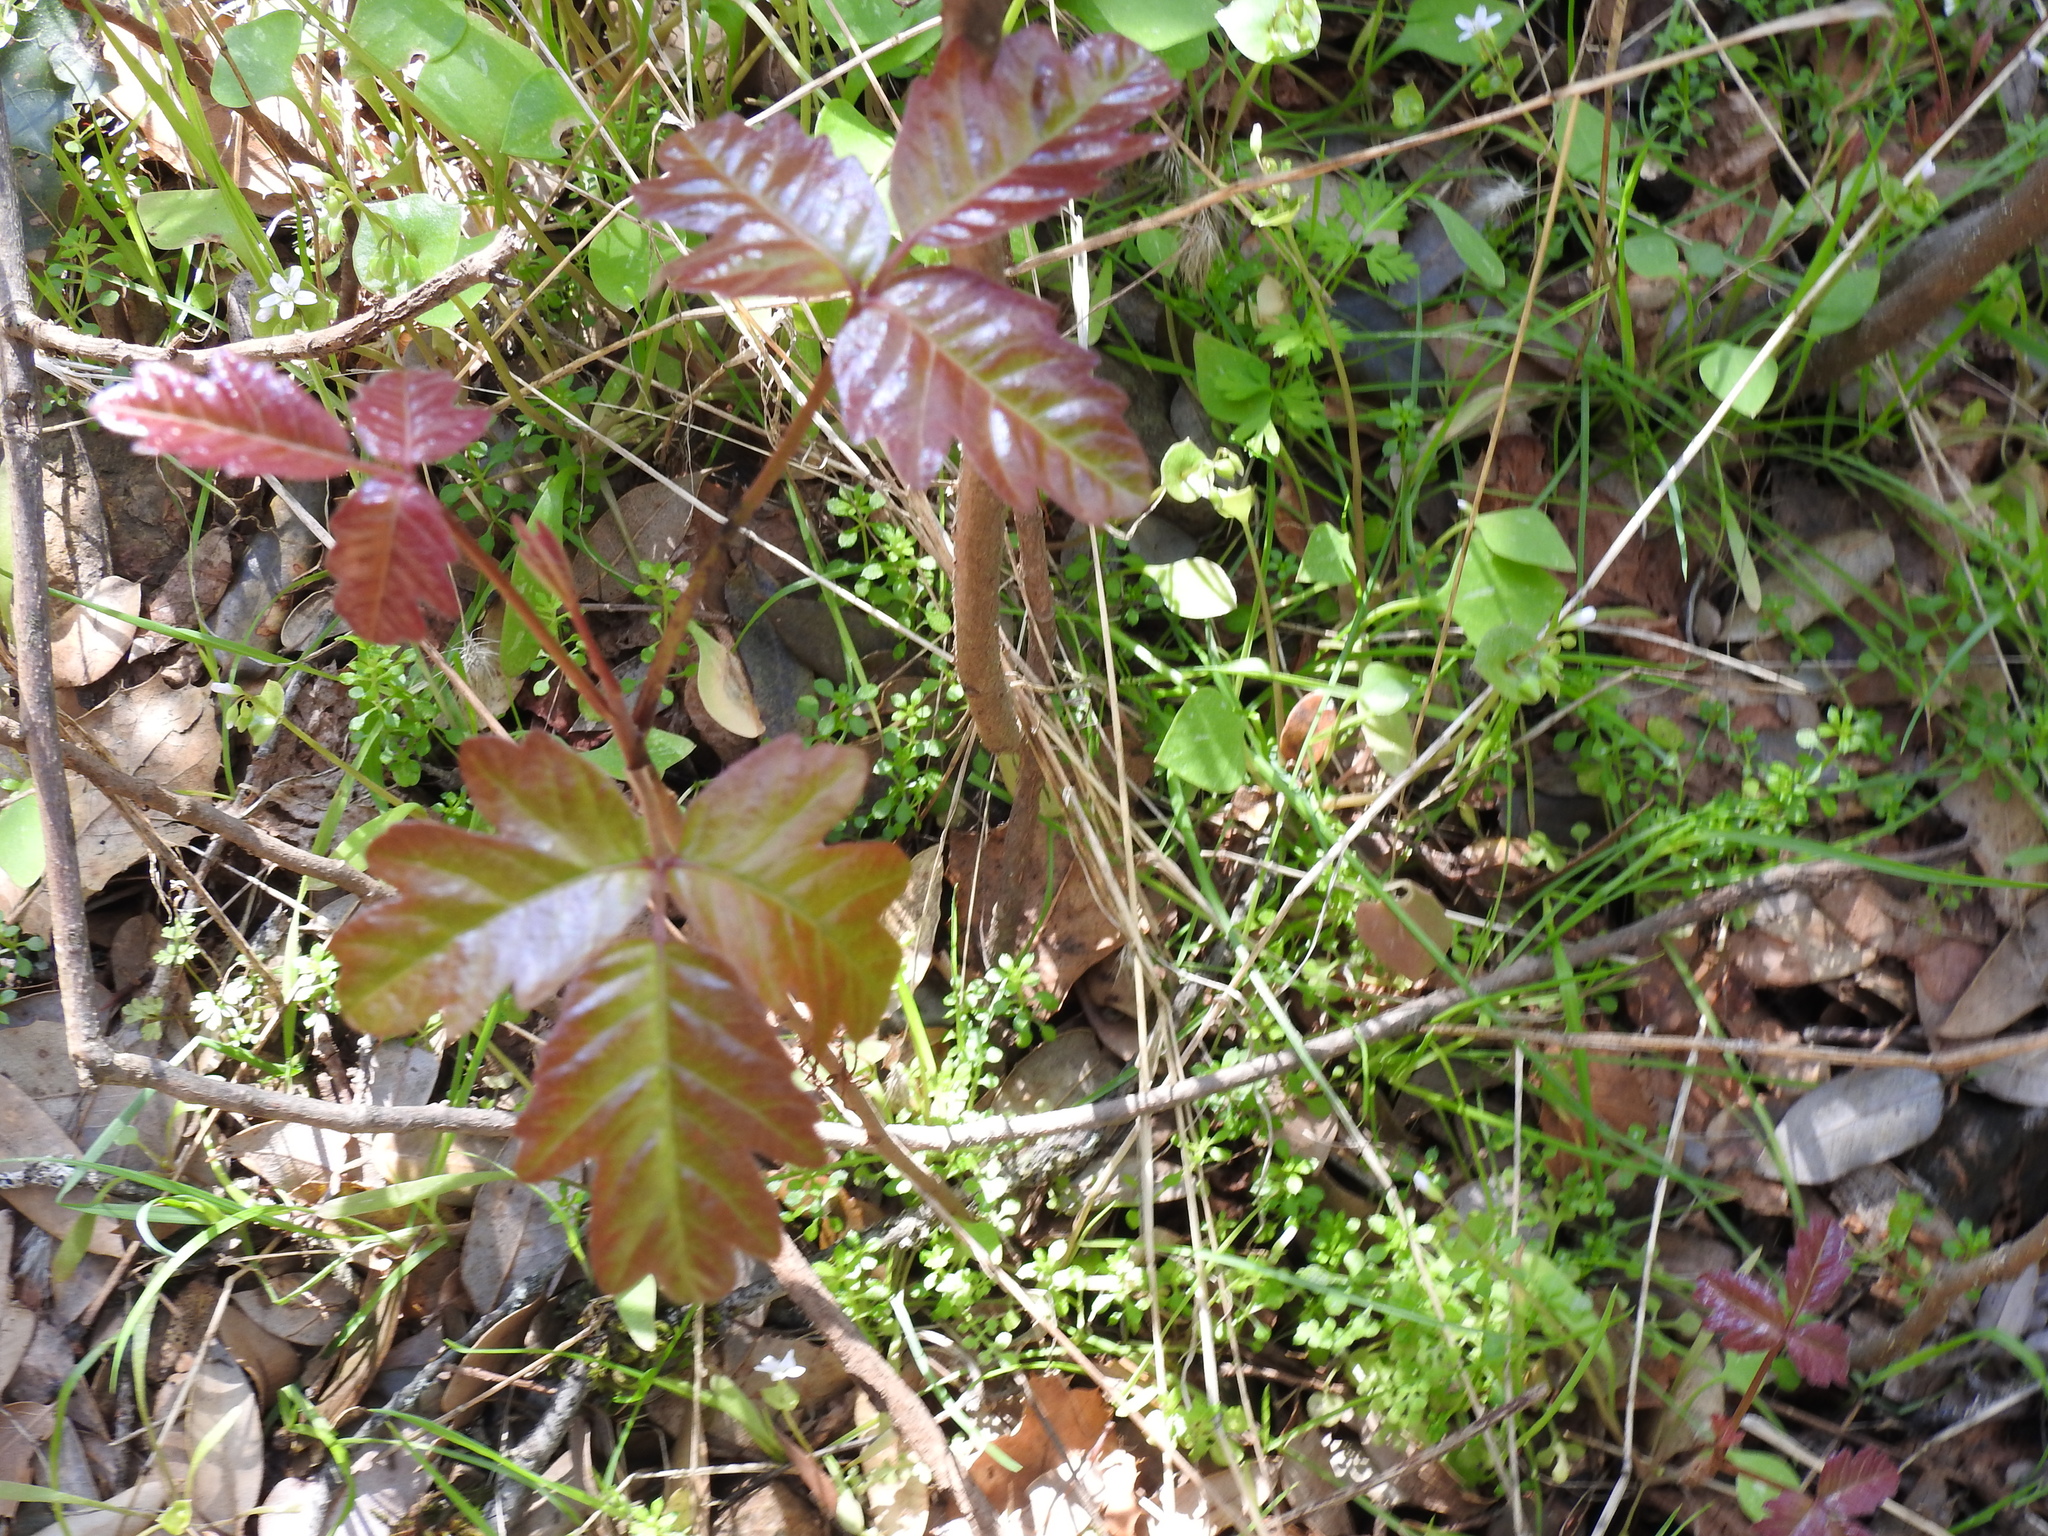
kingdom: Plantae
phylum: Tracheophyta
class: Magnoliopsida
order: Sapindales
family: Anacardiaceae
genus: Toxicodendron
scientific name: Toxicodendron diversilobum
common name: Pacific poison-oak
